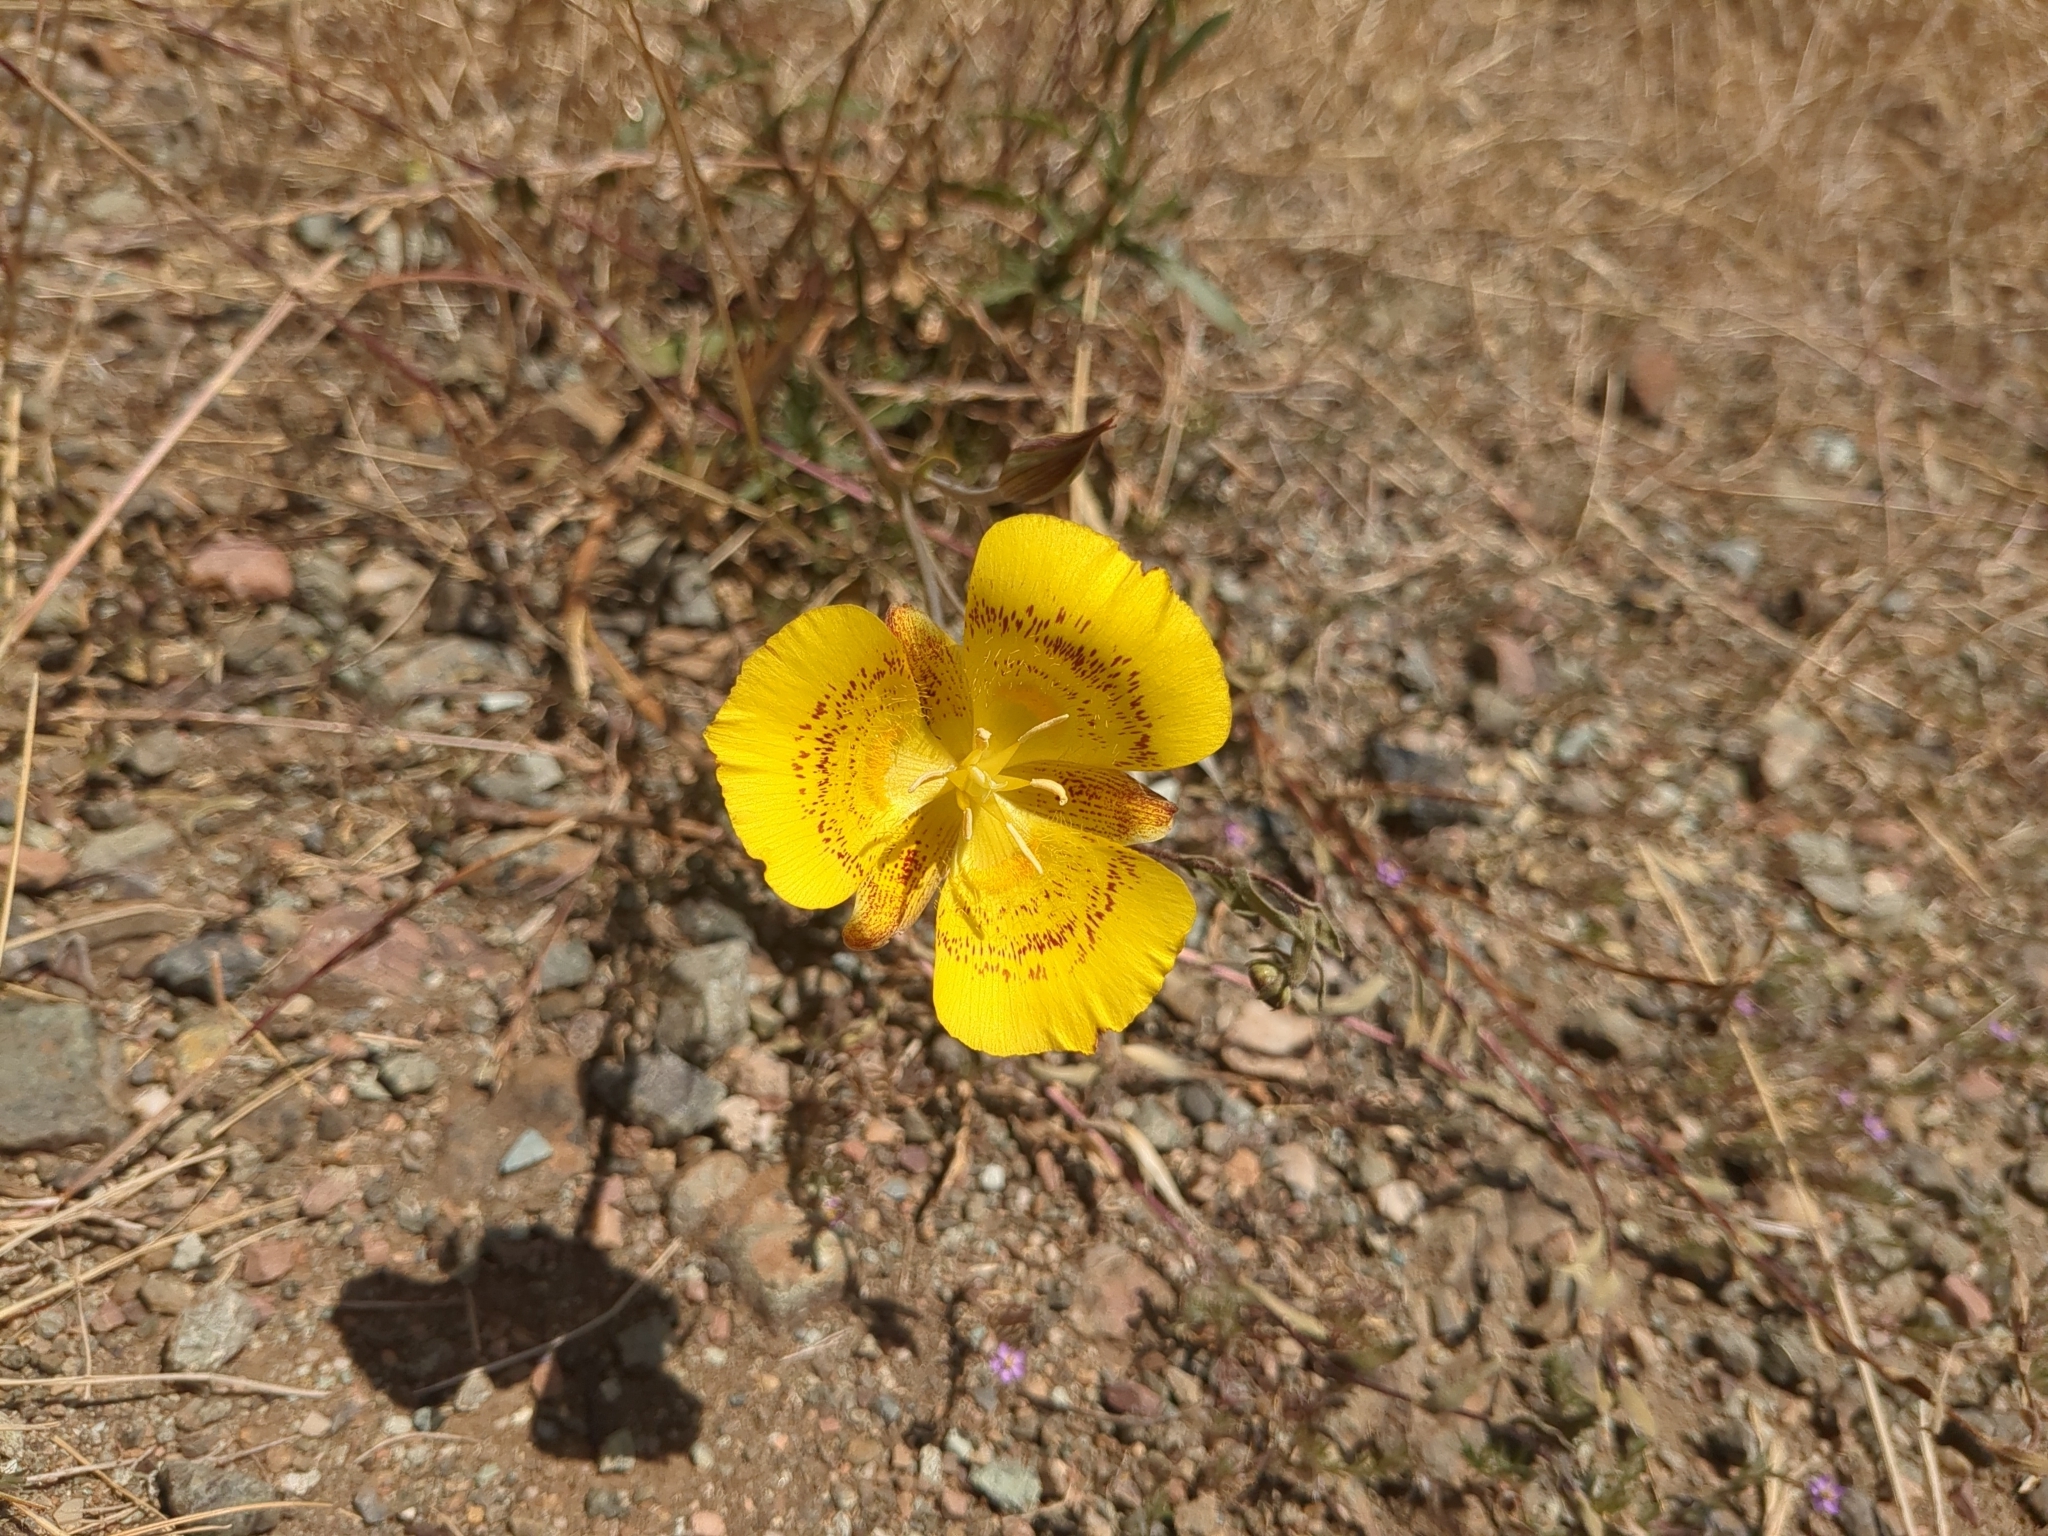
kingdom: Plantae
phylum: Tracheophyta
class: Liliopsida
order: Liliales
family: Liliaceae
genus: Calochortus
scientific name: Calochortus luteus
